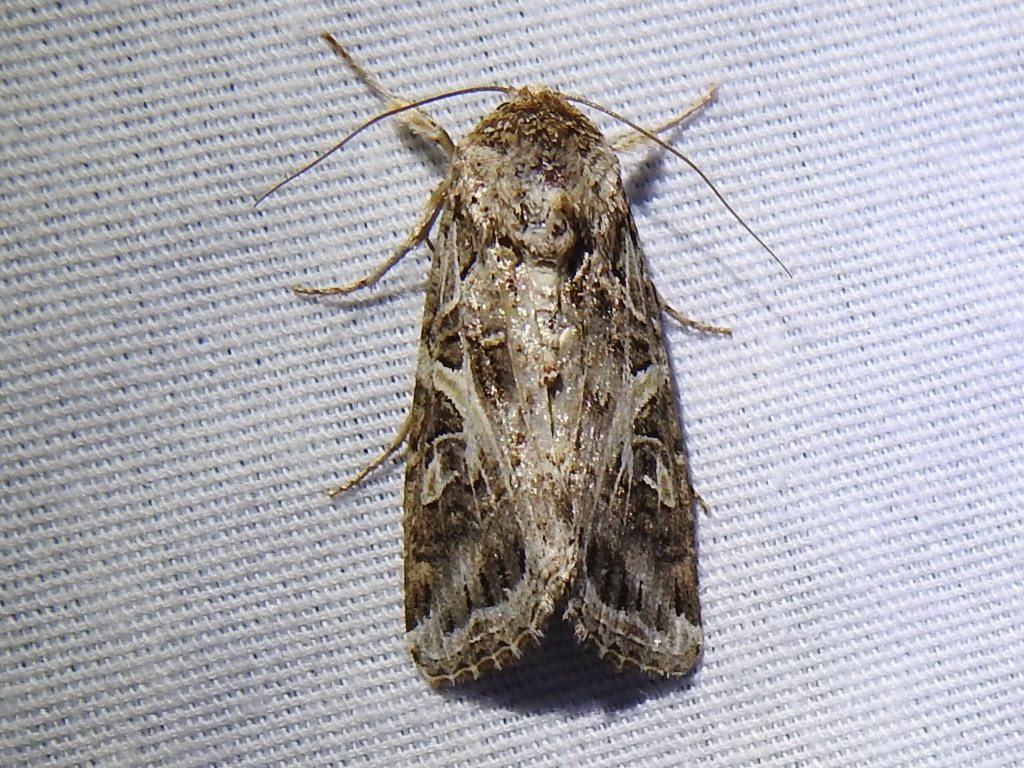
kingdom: Animalia
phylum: Arthropoda
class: Insecta
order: Lepidoptera
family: Noctuidae
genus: Spodoptera
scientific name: Spodoptera ornithogalli
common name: Yellow-striped armyworm
